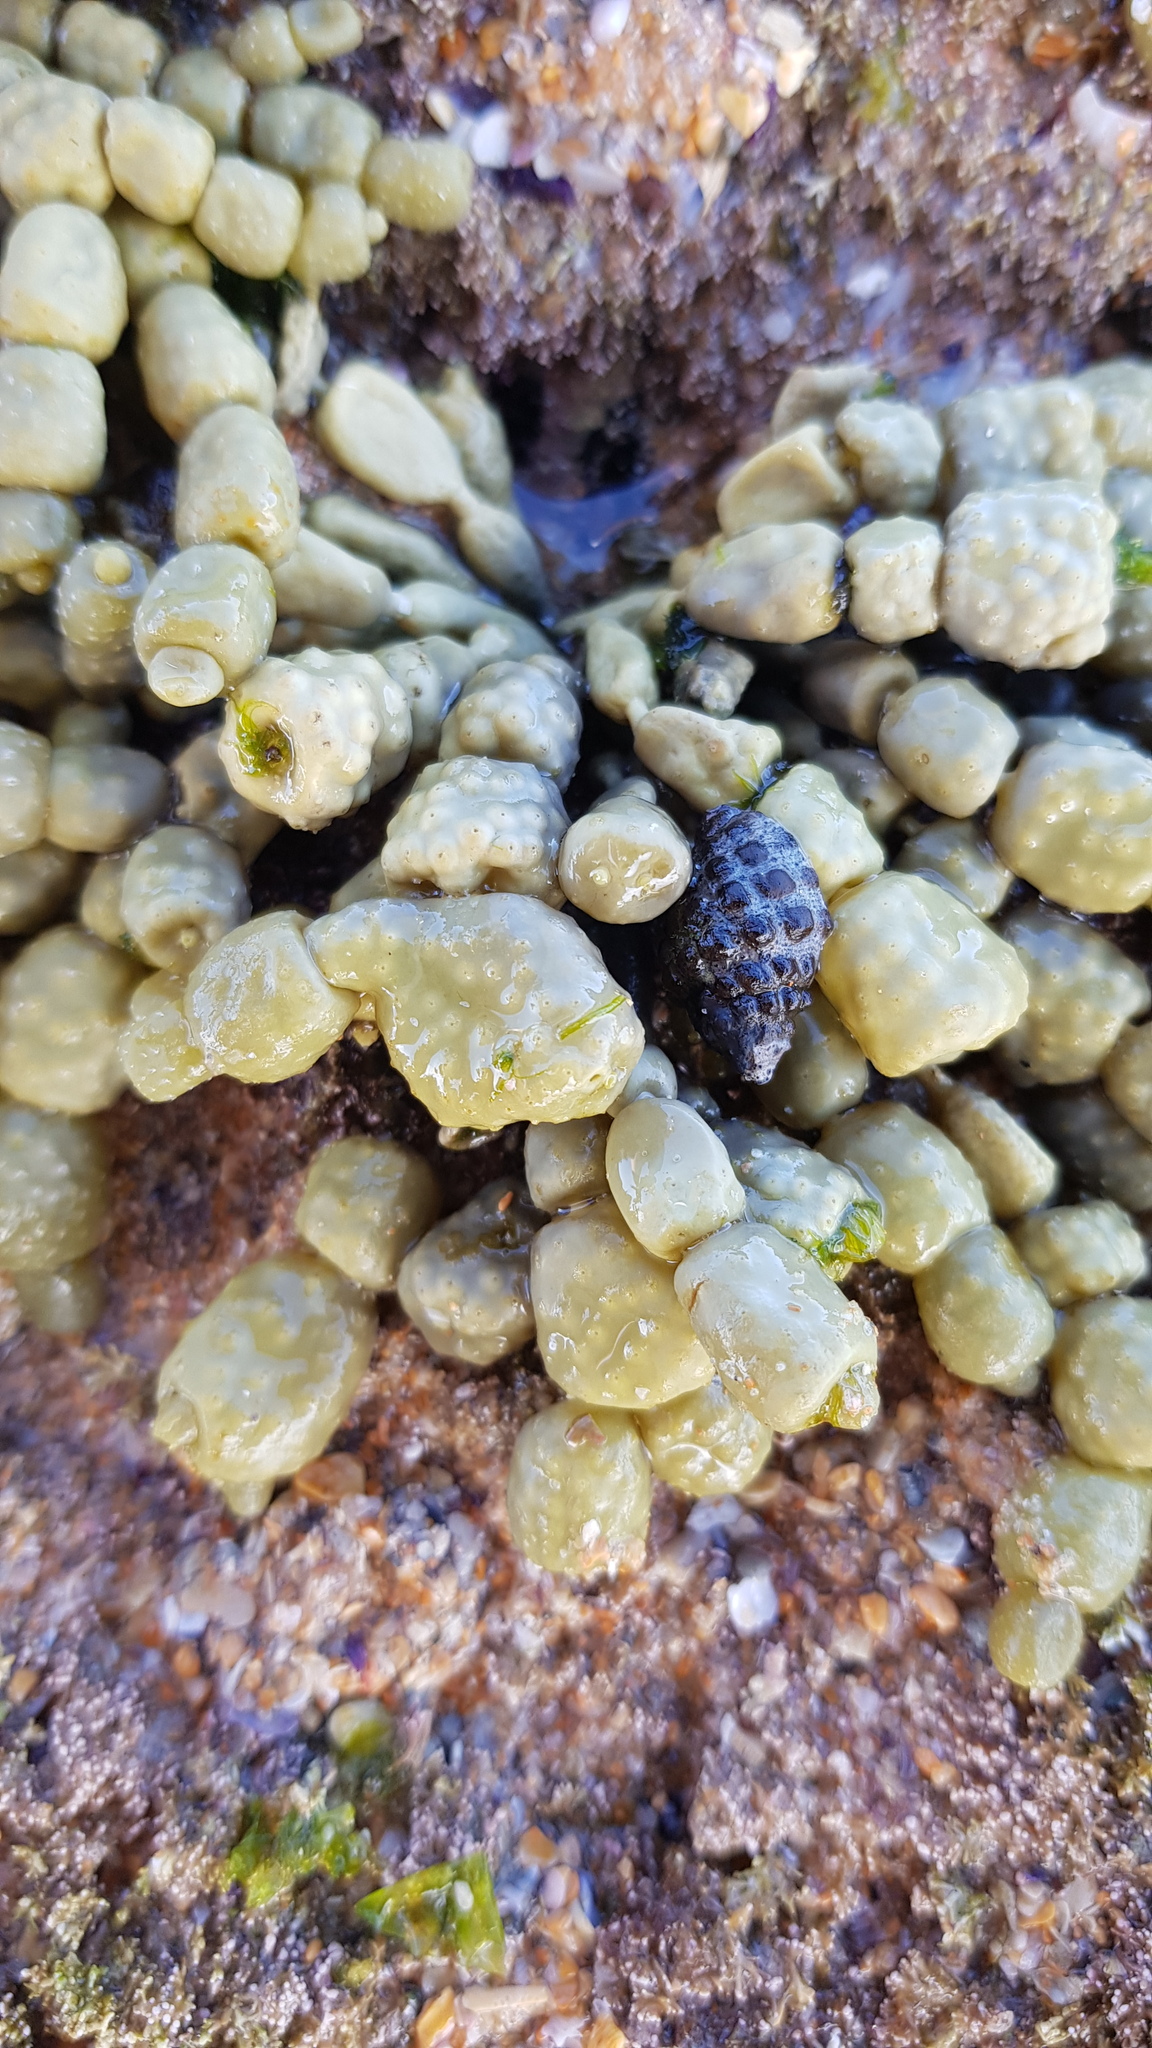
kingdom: Animalia
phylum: Mollusca
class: Gastropoda
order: Neogastropoda
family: Muricidae
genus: Tenguella
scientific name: Tenguella marginalba
